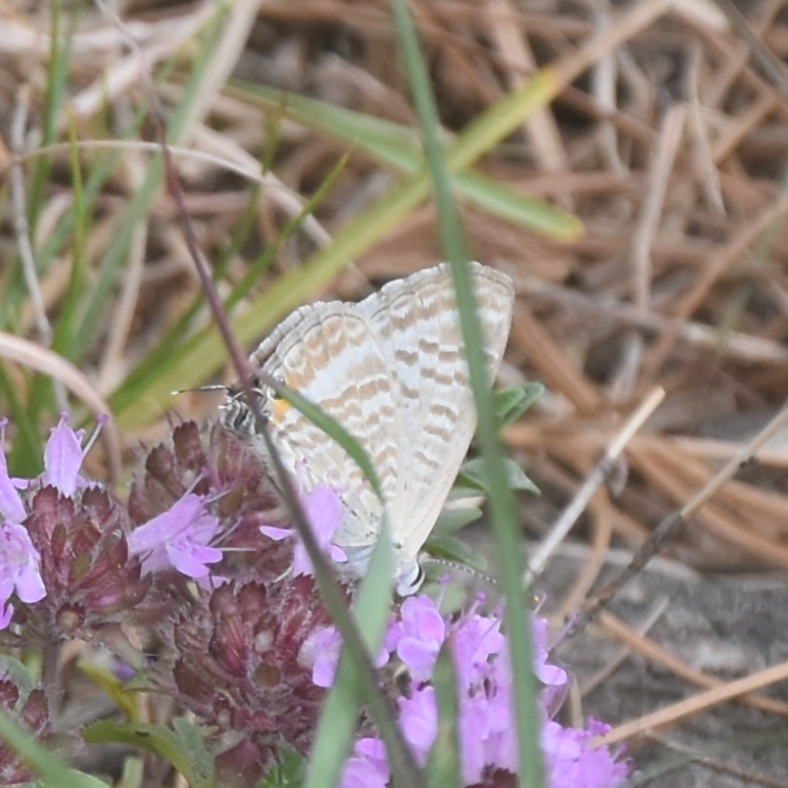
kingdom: Animalia
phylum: Arthropoda
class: Insecta
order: Lepidoptera
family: Lycaenidae
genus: Lampides
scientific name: Lampides boeticus
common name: Long-tailed blue
